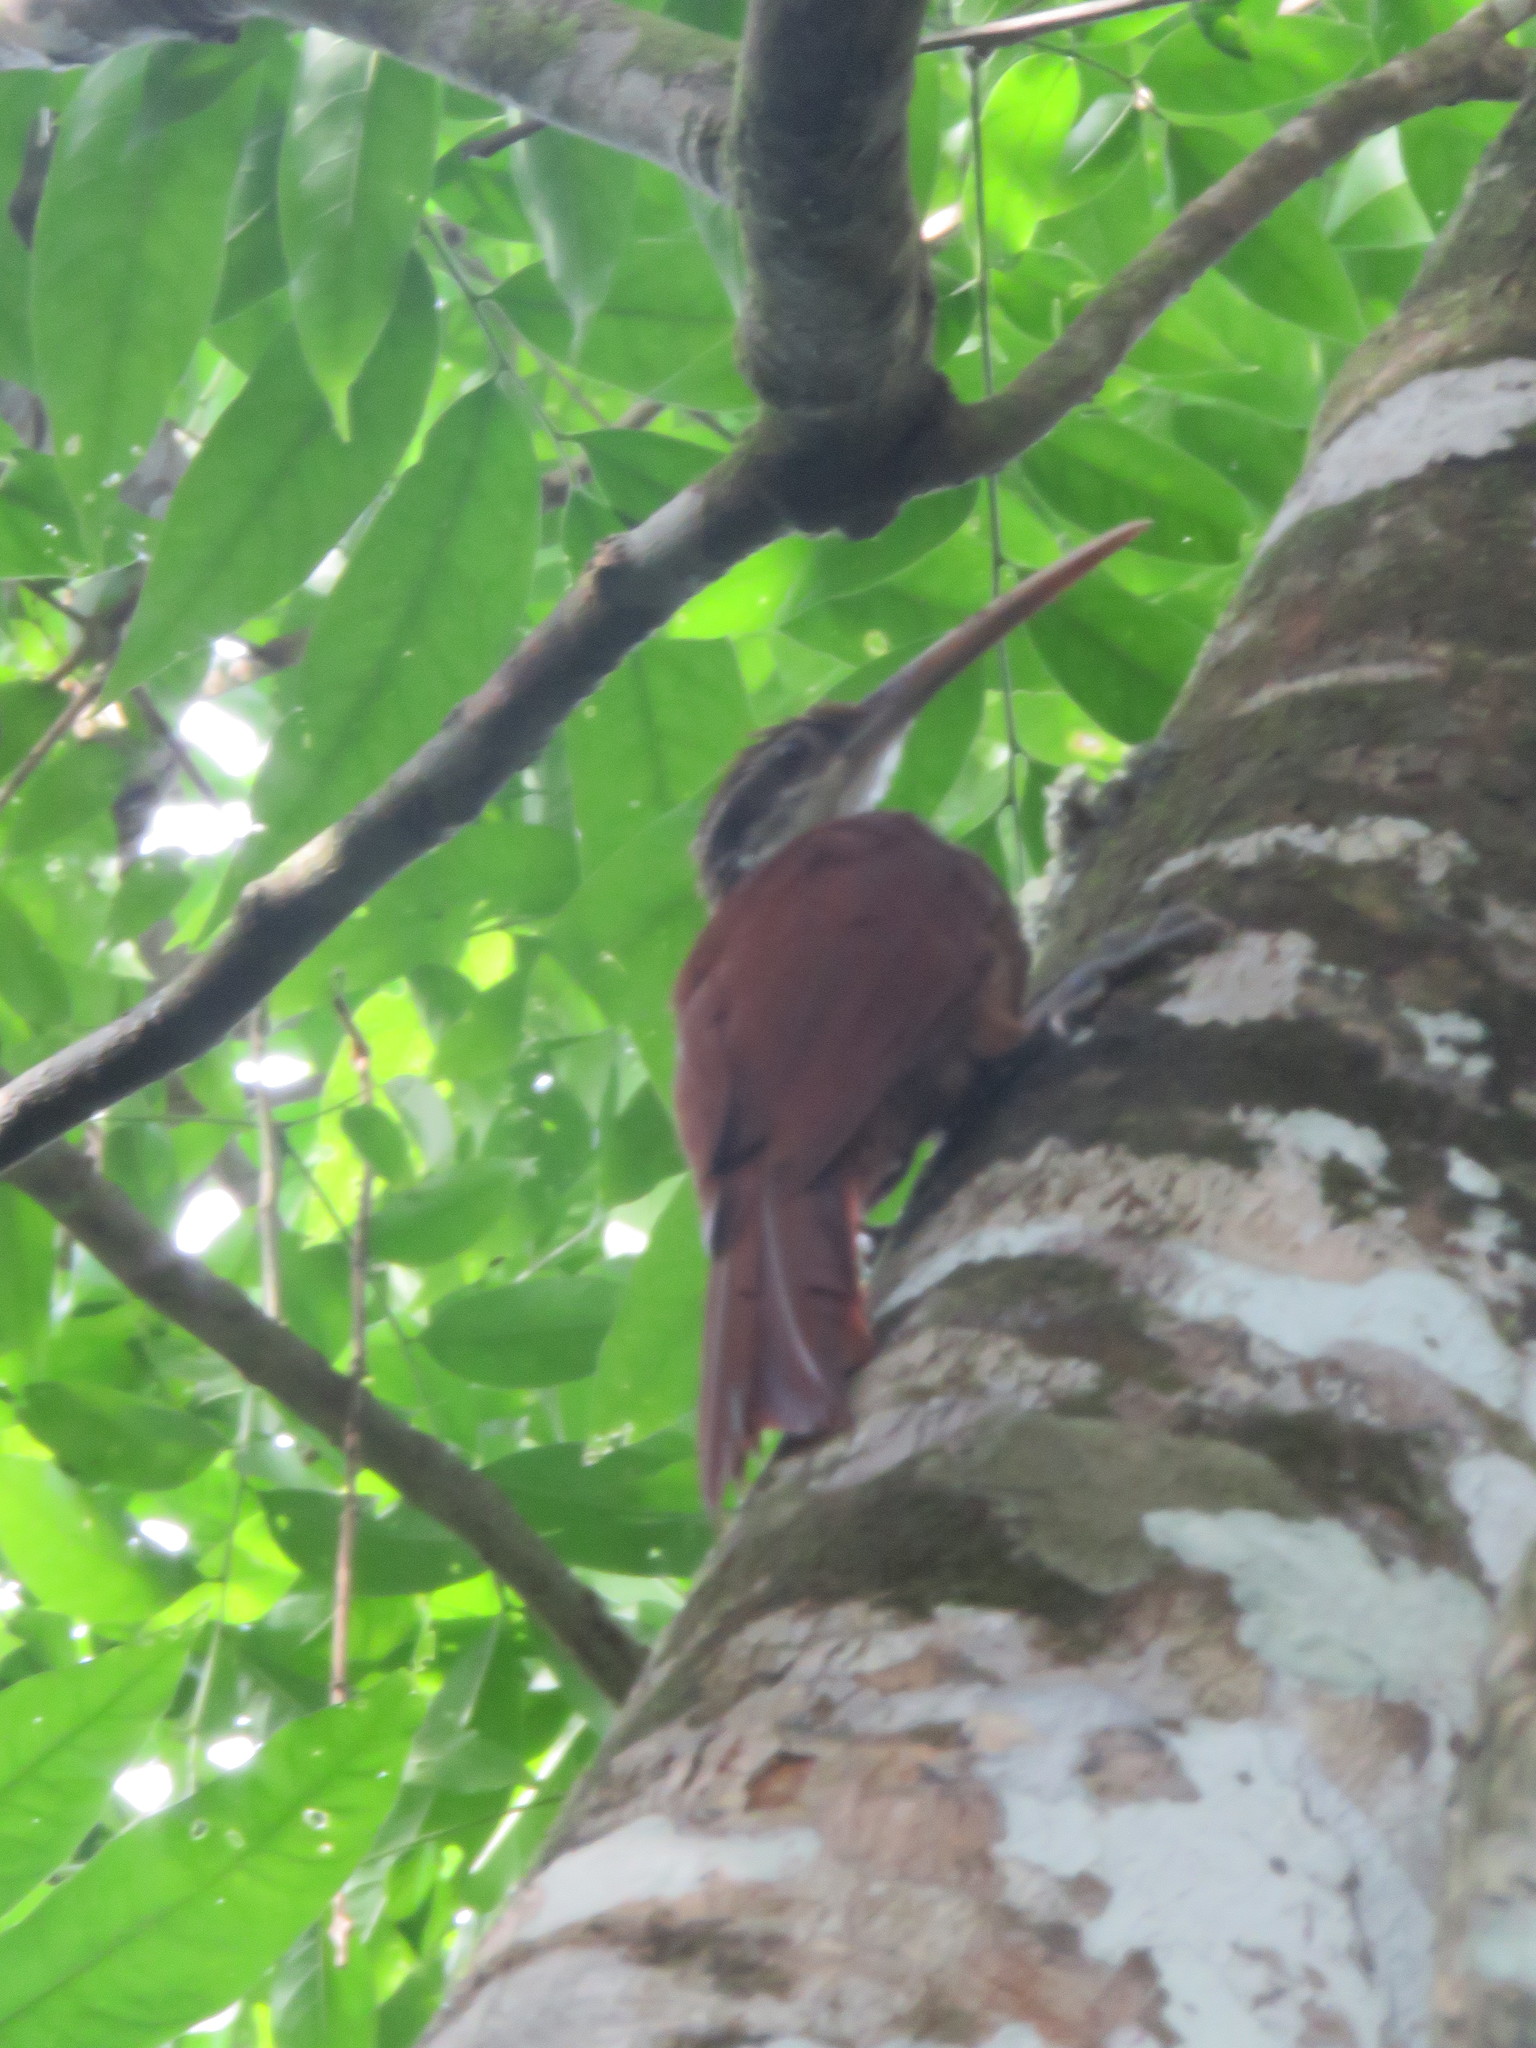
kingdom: Animalia
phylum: Chordata
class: Aves
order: Passeriformes
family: Furnariidae
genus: Nasica
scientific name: Nasica longirostris
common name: Long-billed woodcreeper
